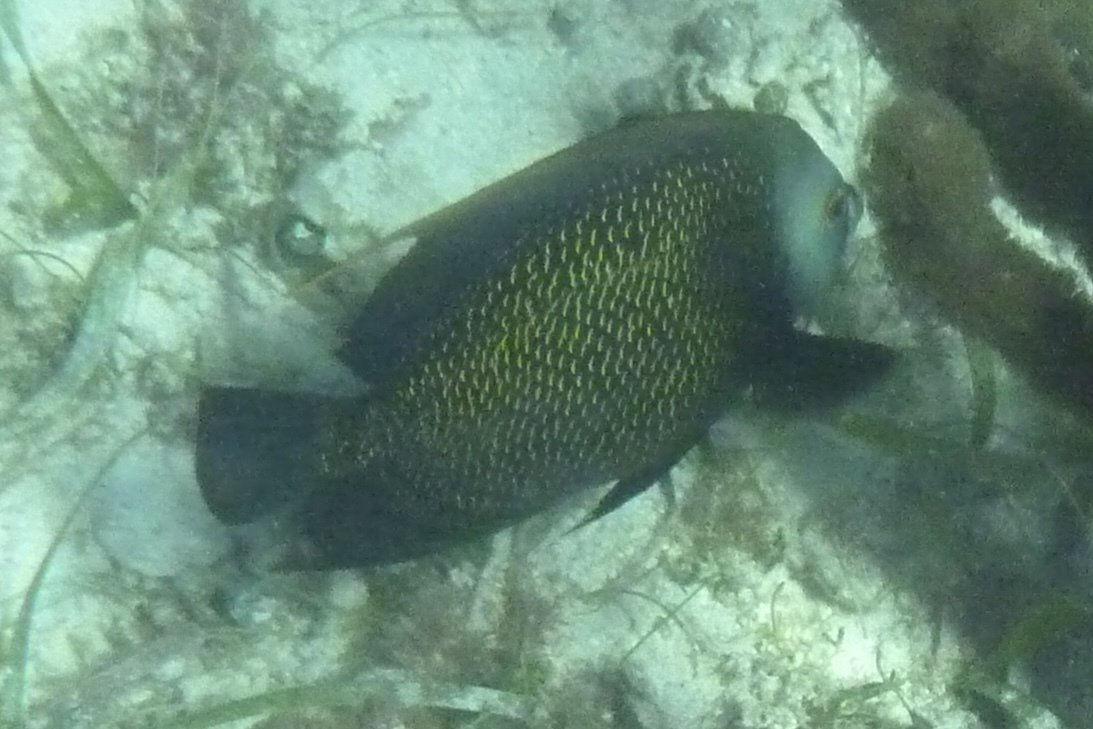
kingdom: Animalia
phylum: Chordata
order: Perciformes
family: Pomacanthidae
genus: Pomacanthus
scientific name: Pomacanthus paru
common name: French angelfish
